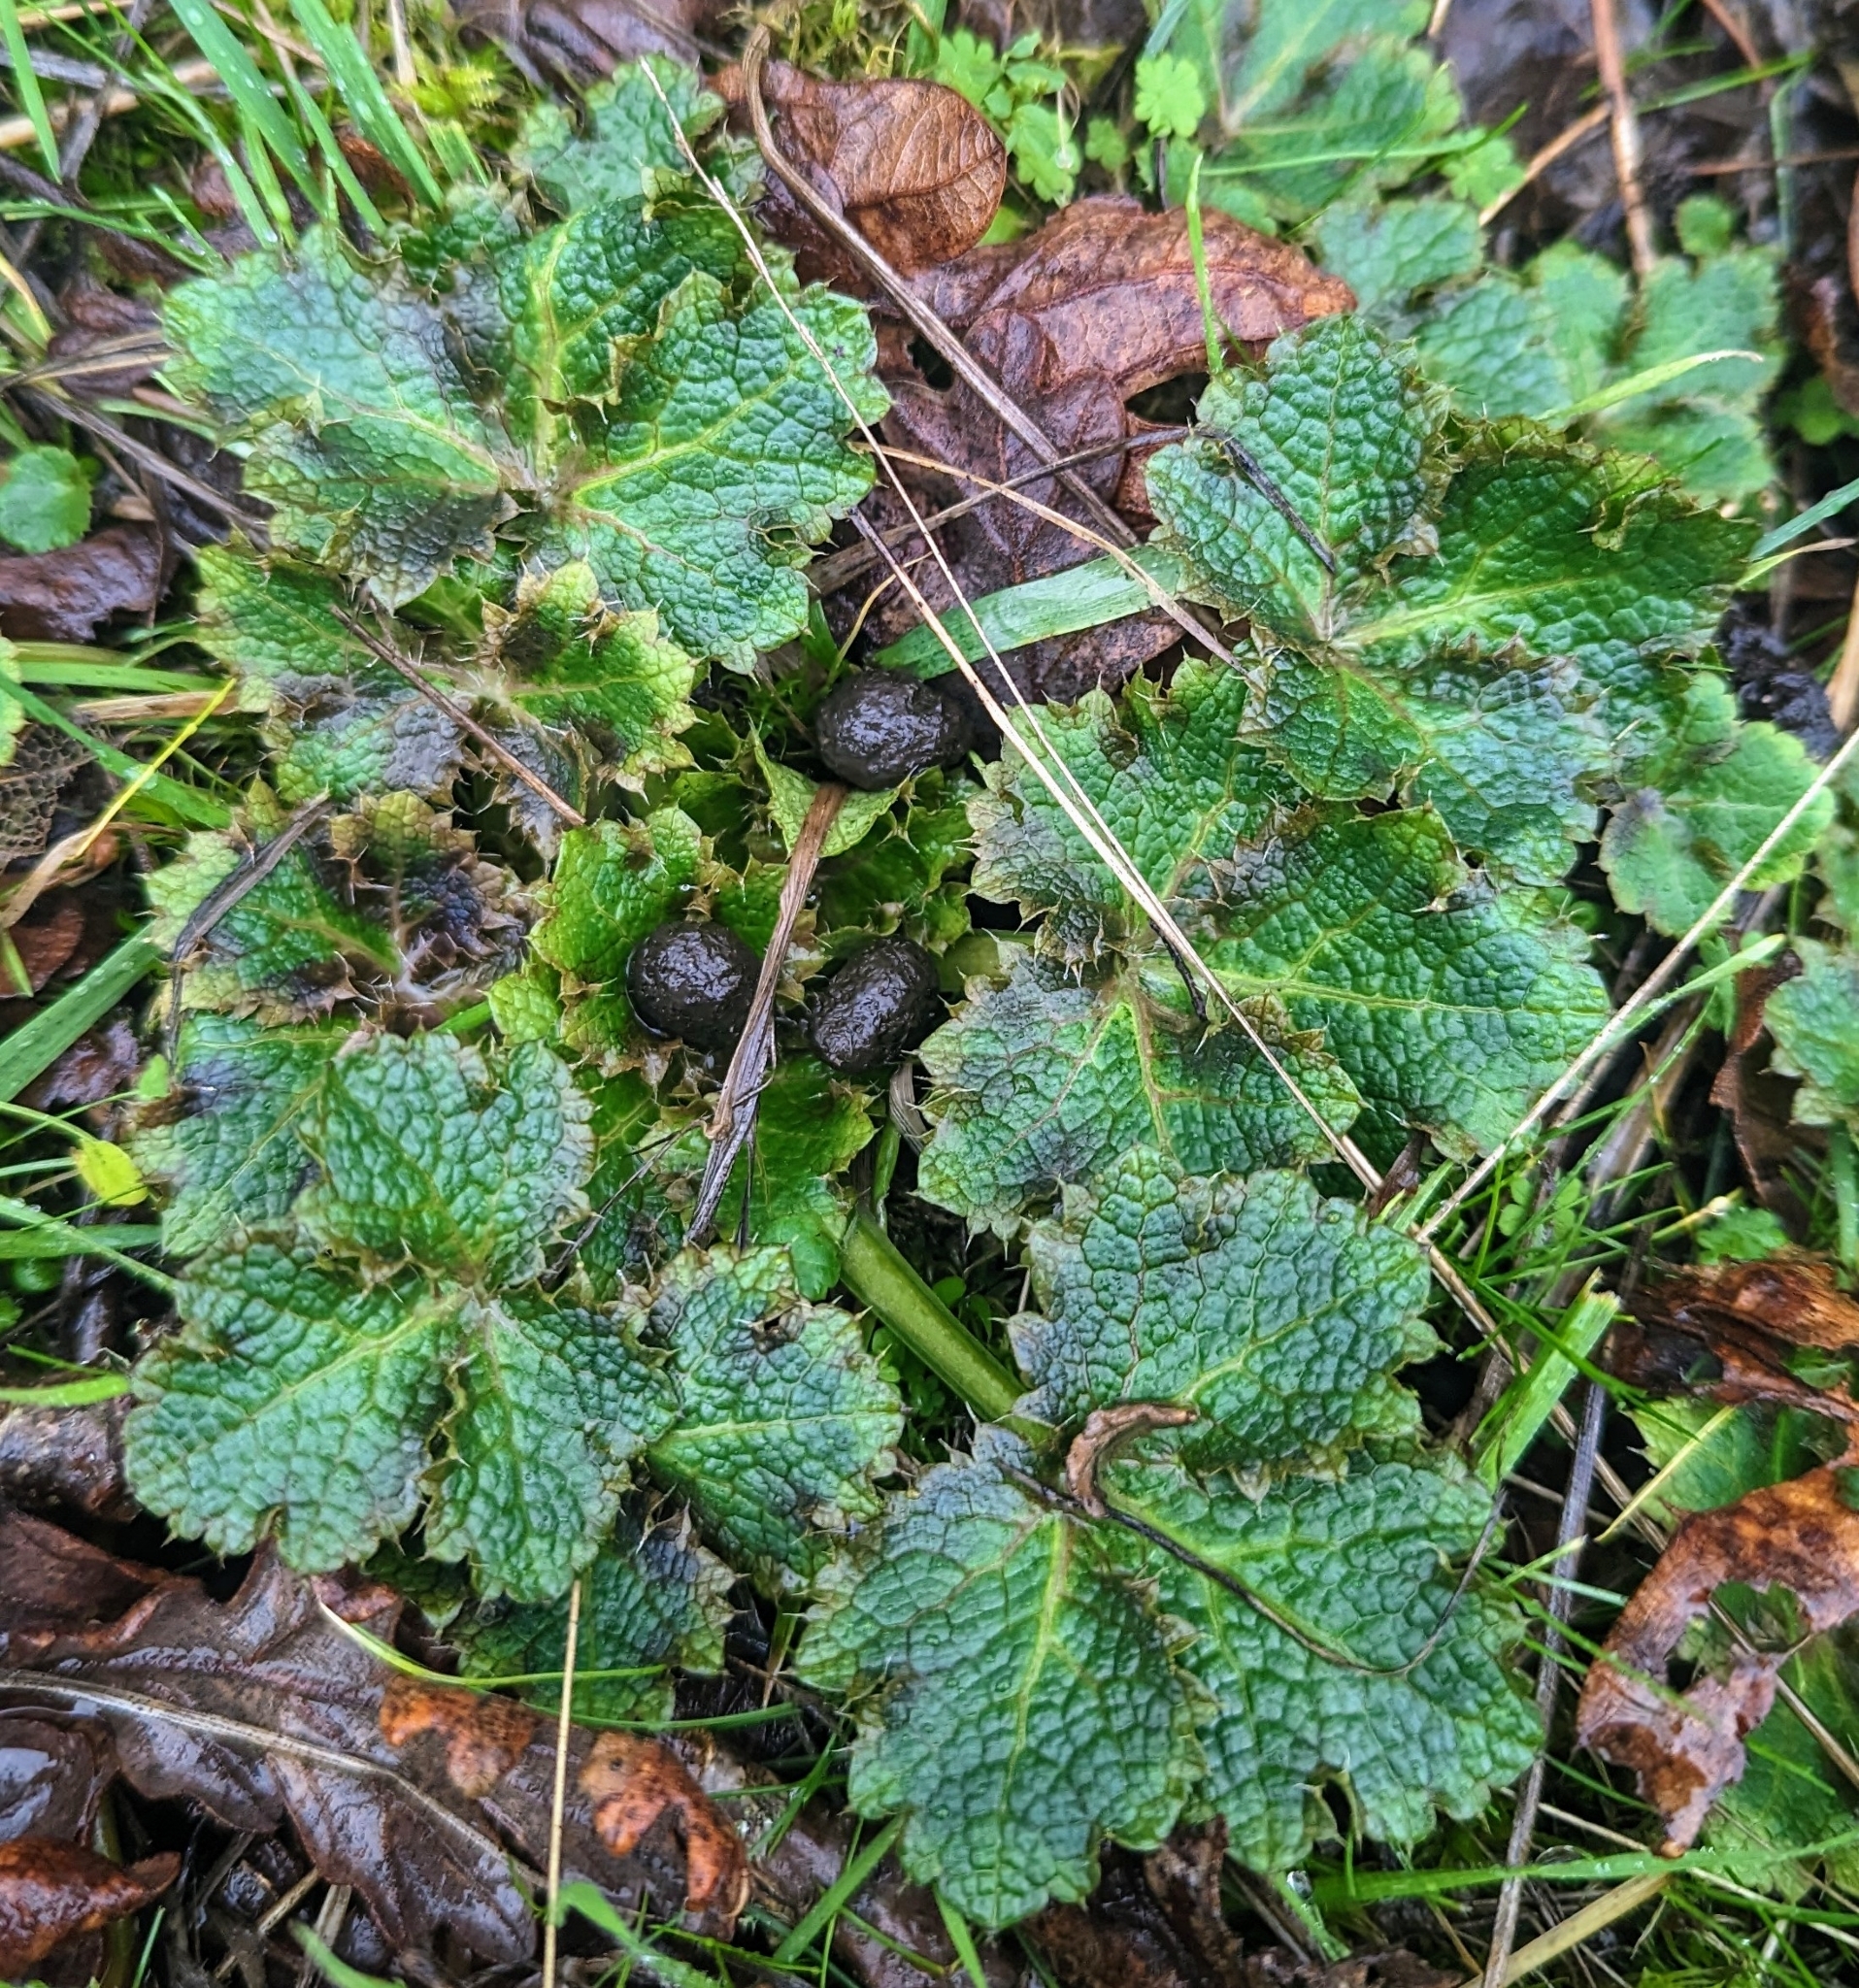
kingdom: Plantae
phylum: Tracheophyta
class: Magnoliopsida
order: Apiales
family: Apiaceae
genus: Sanicula
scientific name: Sanicula crassicaulis
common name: Western snakeroot
